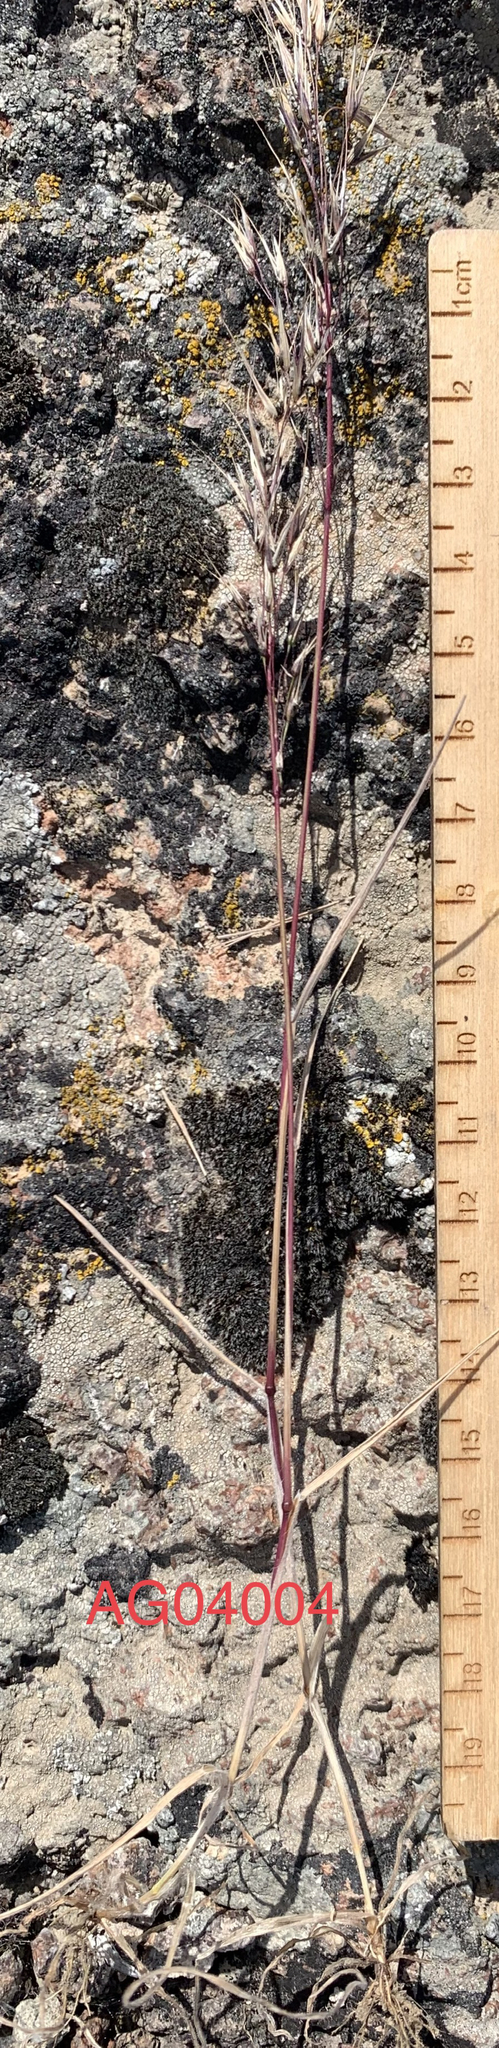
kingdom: Plantae
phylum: Tracheophyta
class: Liliopsida
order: Poales
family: Poaceae
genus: Bromus
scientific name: Bromus tectorum
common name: Cheatgrass
